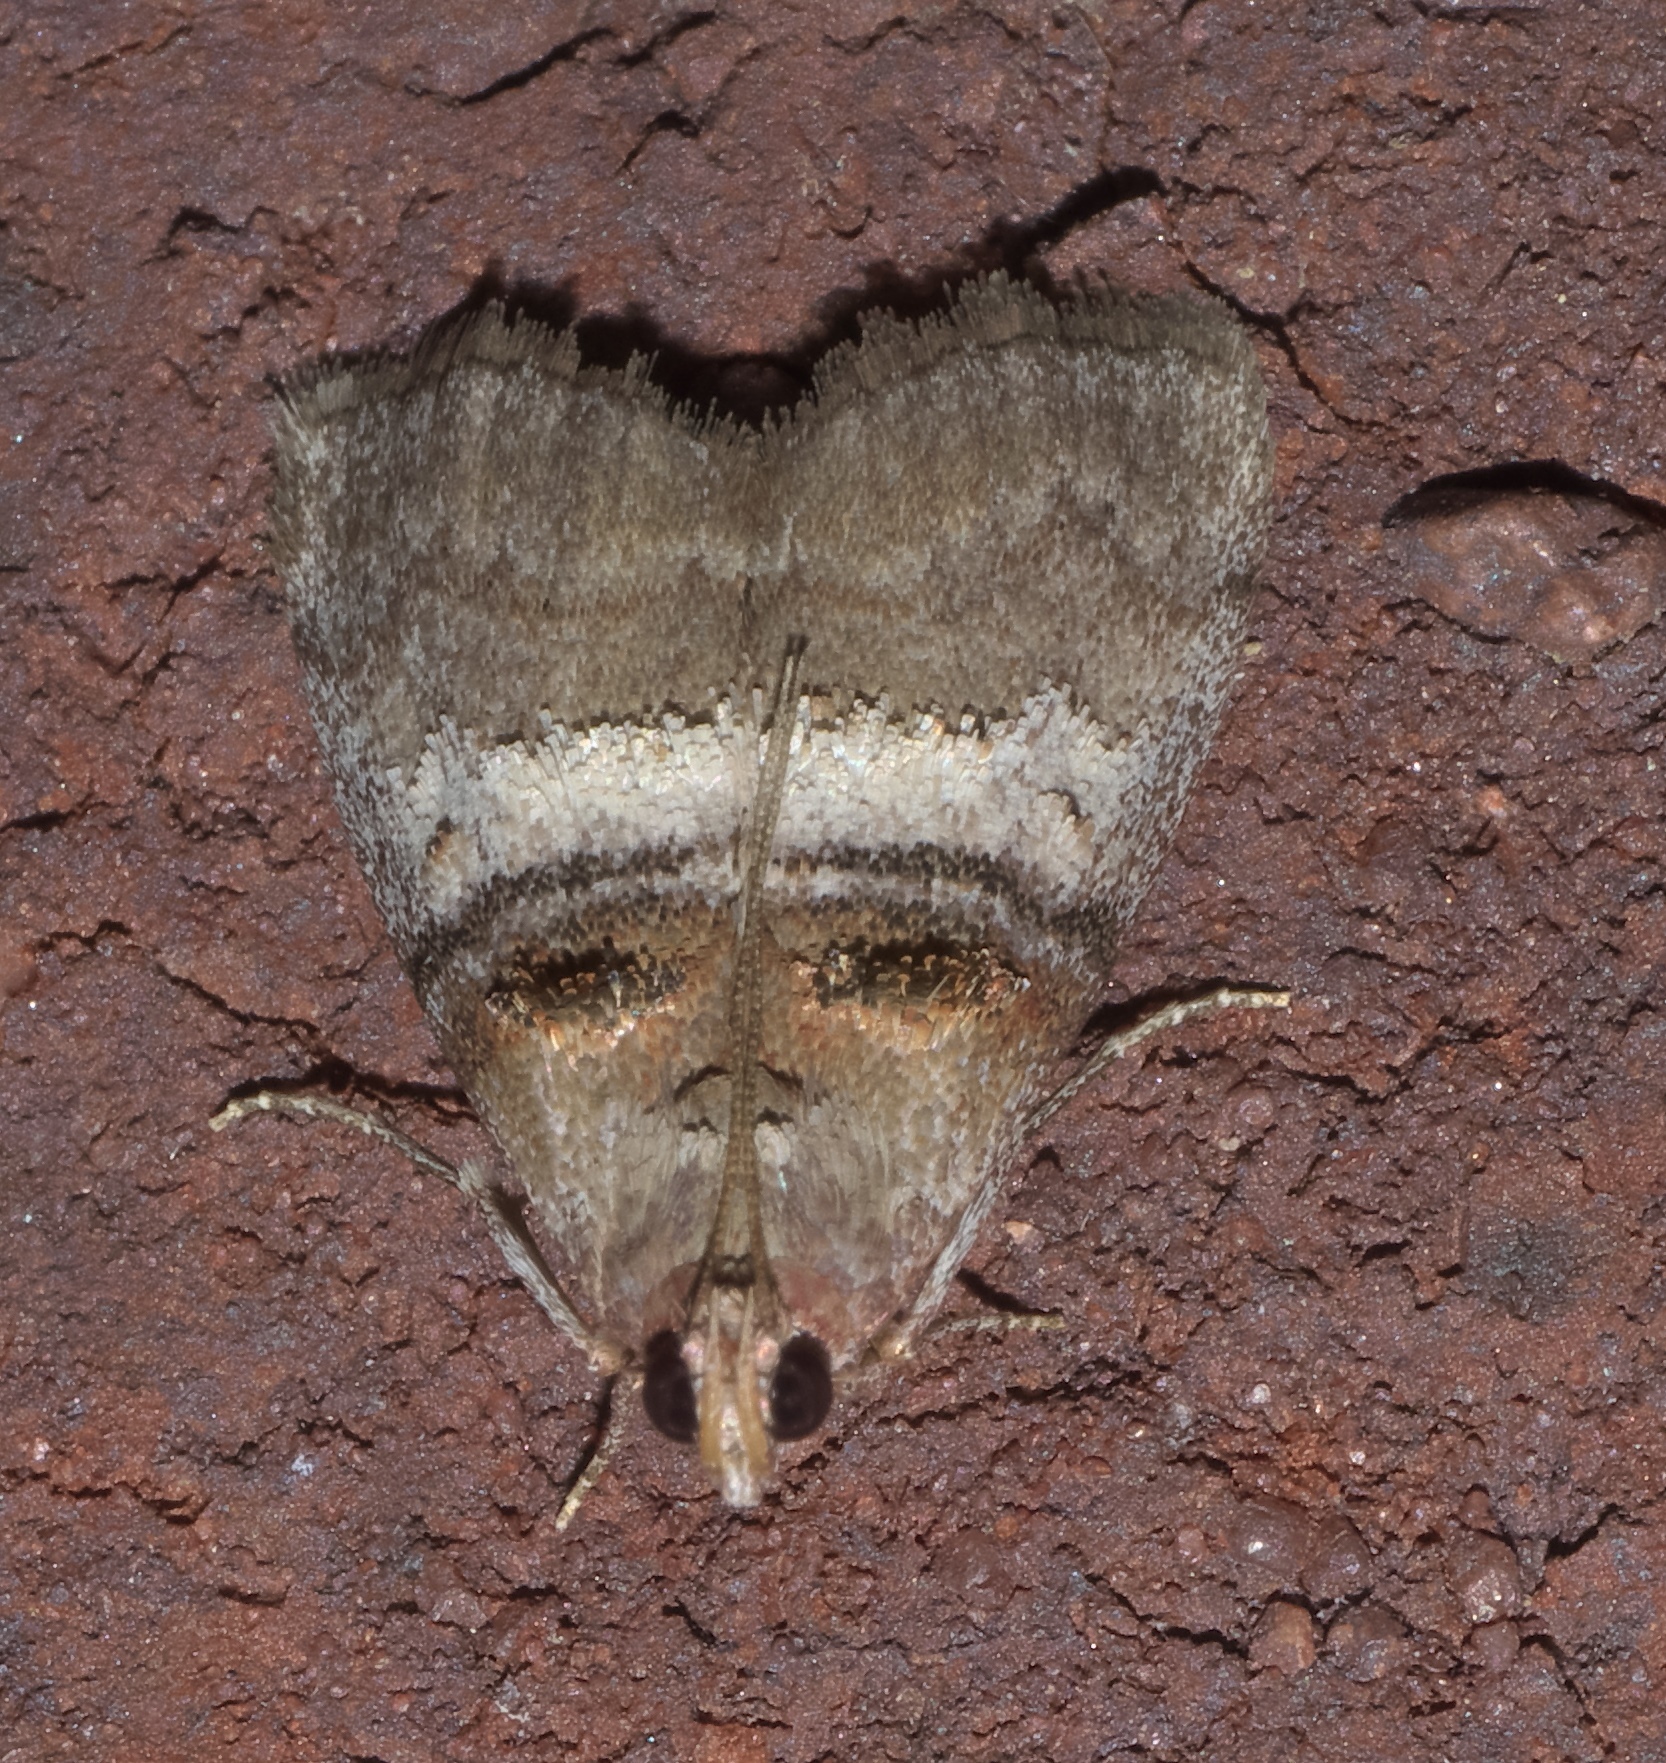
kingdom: Animalia
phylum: Arthropoda
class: Insecta
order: Lepidoptera
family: Pyralidae
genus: Pococera
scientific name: Pococera militella
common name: Sycamore webworm moth
